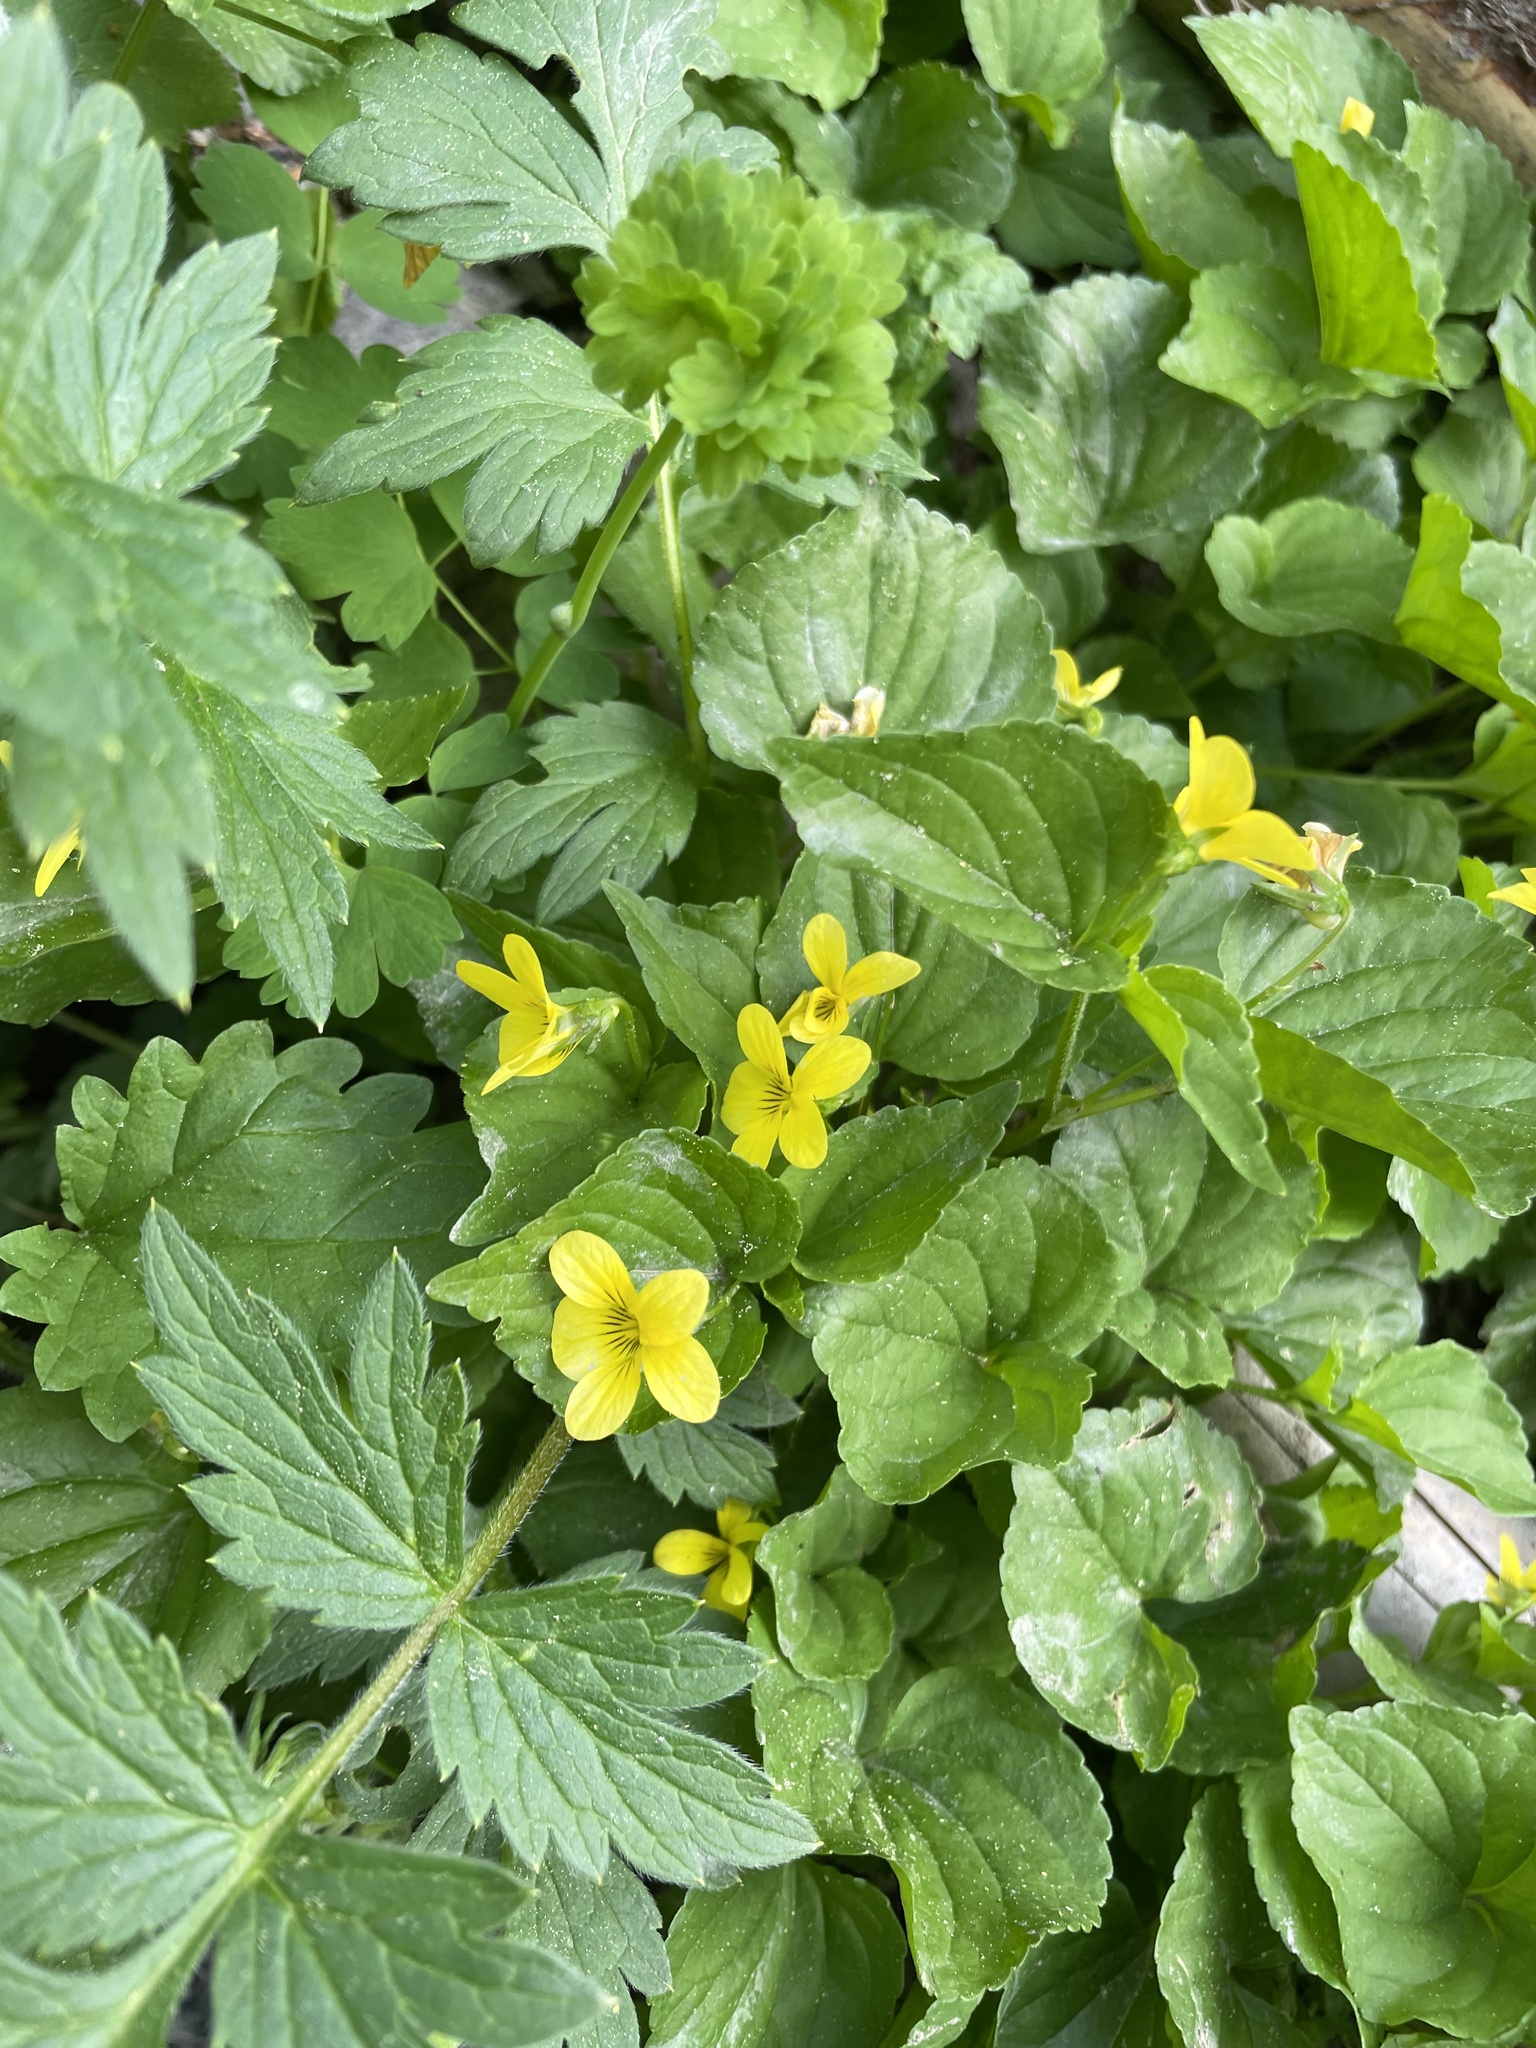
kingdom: Plantae
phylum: Tracheophyta
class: Magnoliopsida
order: Malpighiales
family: Violaceae
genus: Viola
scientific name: Viola glabella
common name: Stream violet
